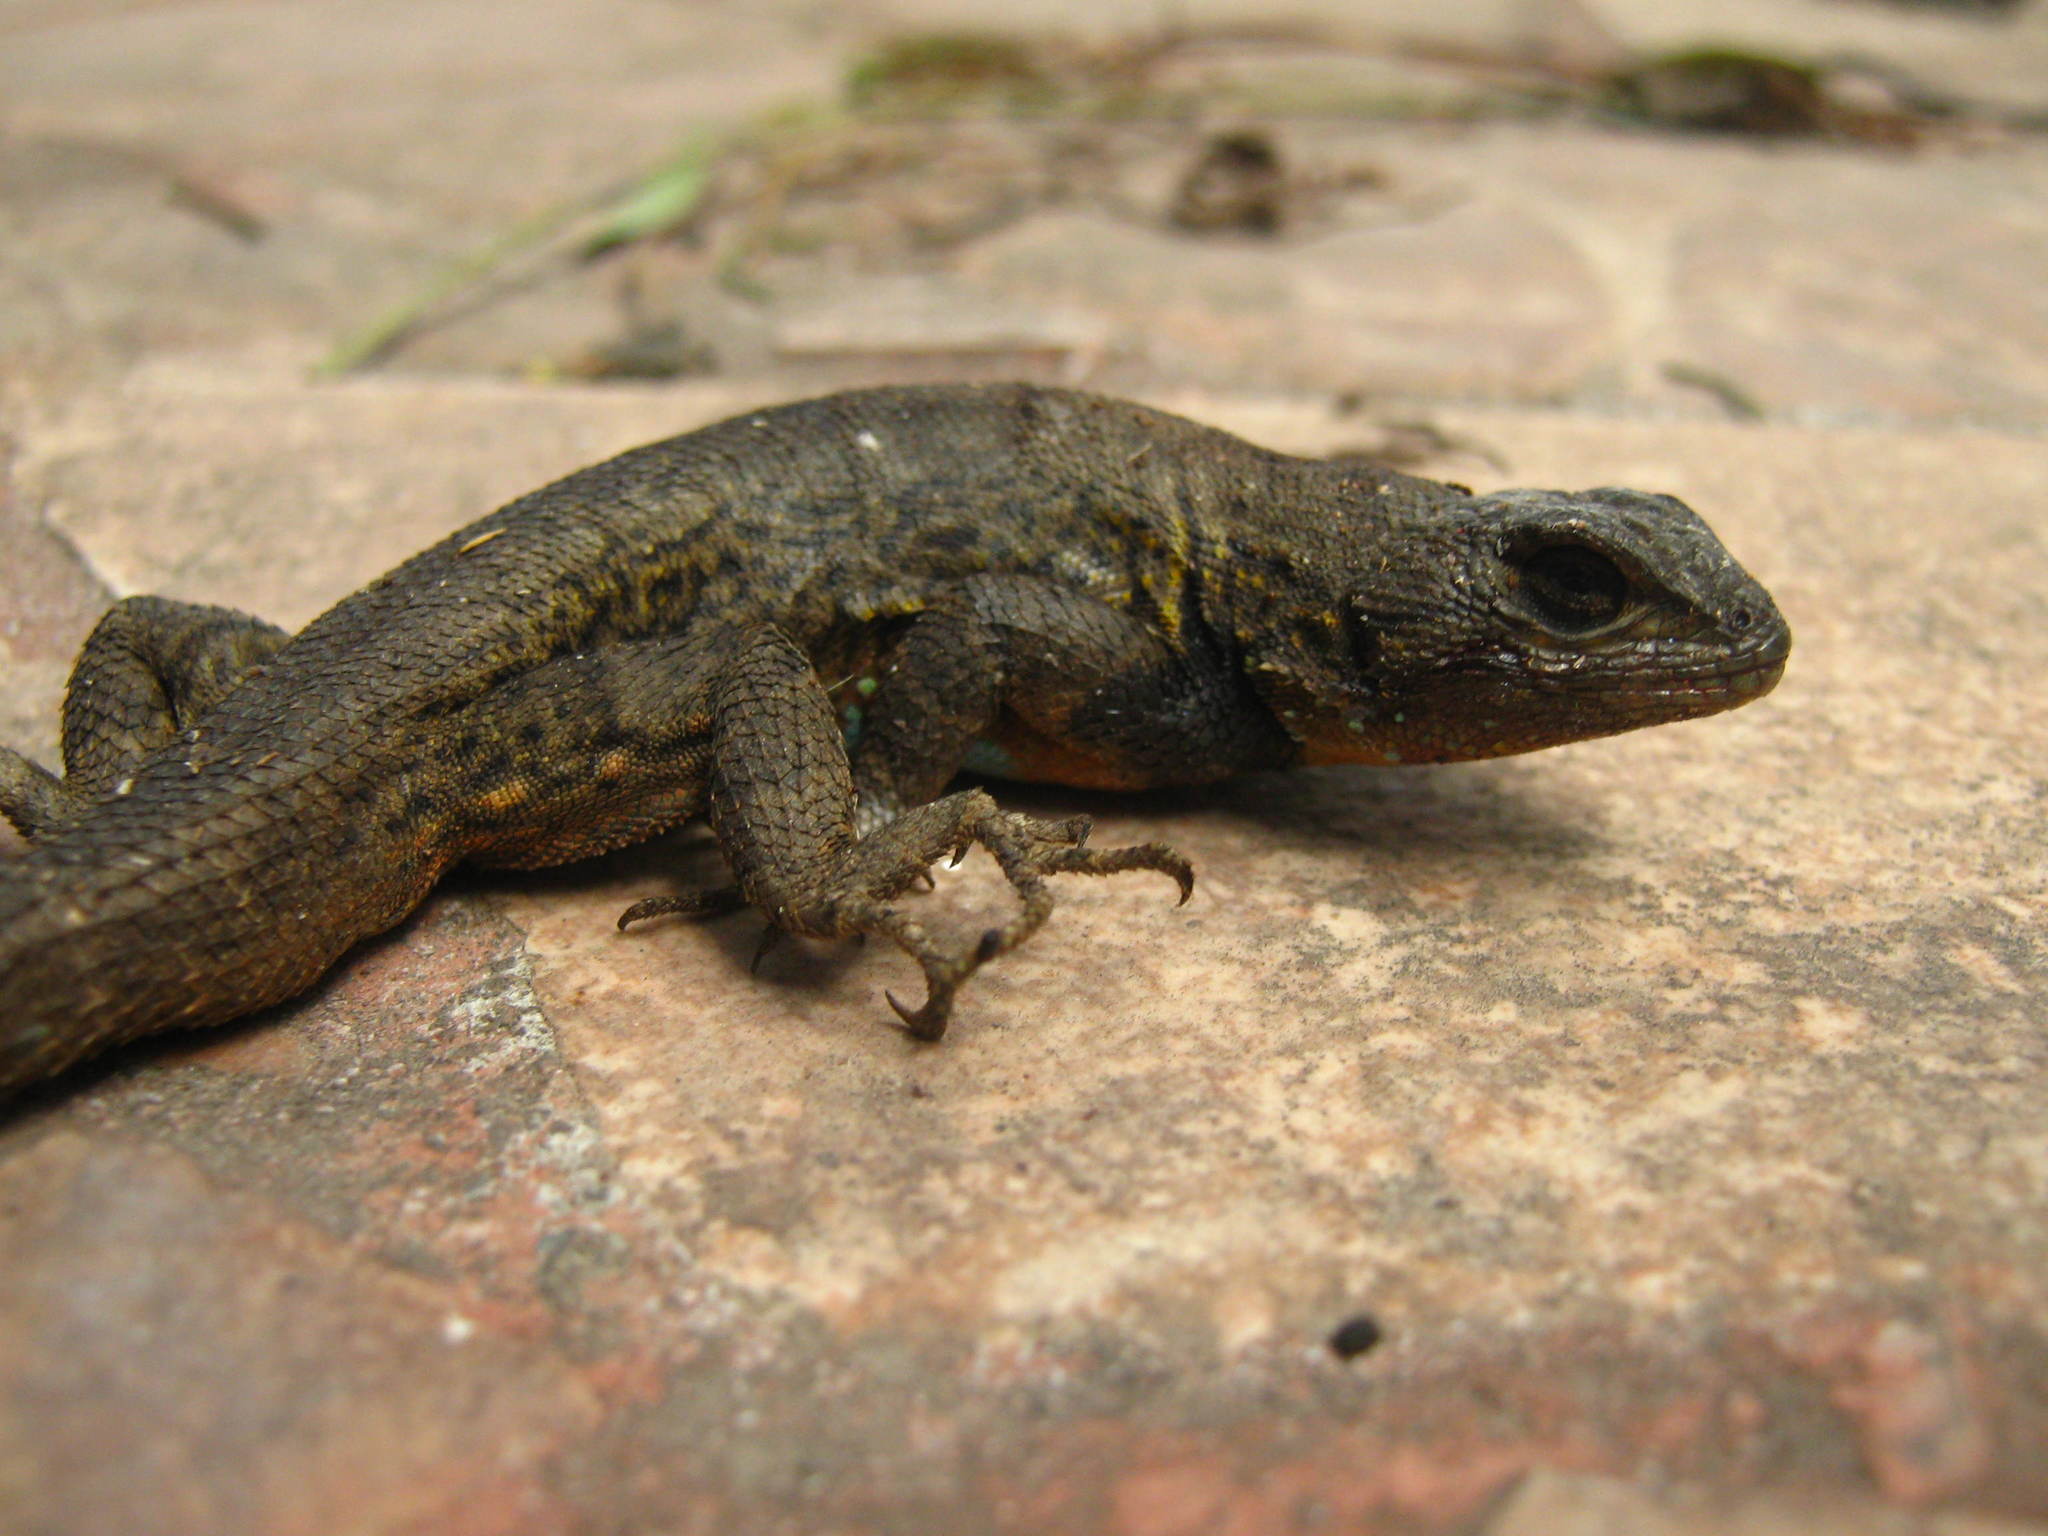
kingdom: Animalia
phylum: Chordata
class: Squamata
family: Phrynosomatidae
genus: Sceloporus
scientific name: Sceloporus grammicus
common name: Mesquite lizard
